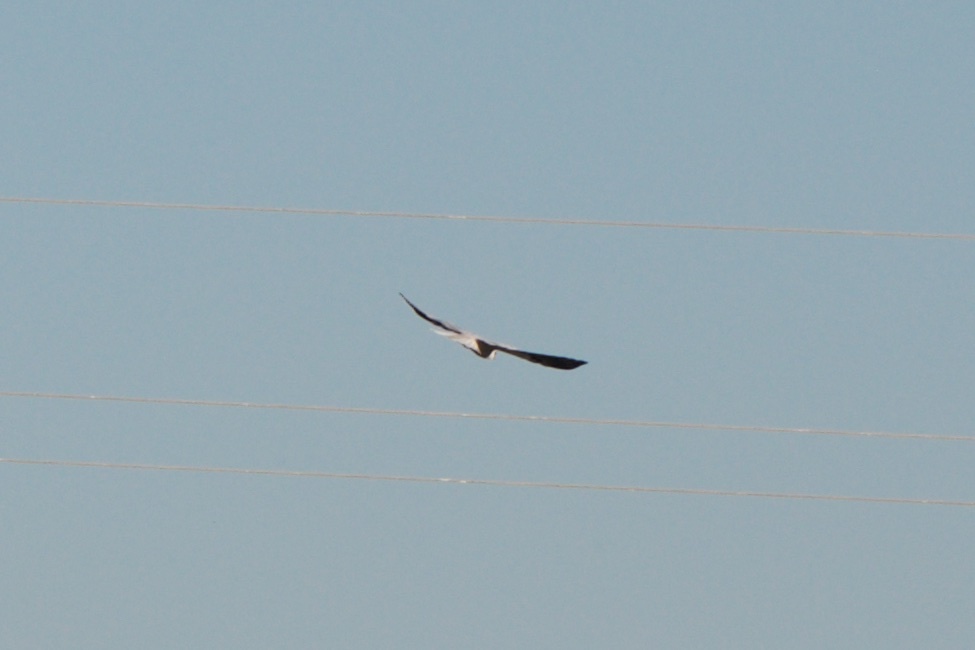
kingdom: Animalia
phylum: Chordata
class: Aves
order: Accipitriformes
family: Accipitridae
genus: Elanus
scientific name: Elanus leucurus
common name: White-tailed kite
